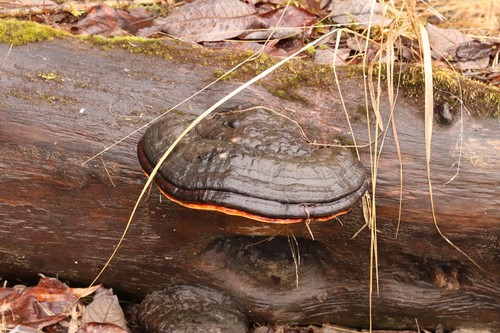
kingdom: Fungi
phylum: Basidiomycota
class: Agaricomycetes
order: Polyporales
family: Fomitopsidaceae
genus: Fomitopsis
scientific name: Fomitopsis pinicola
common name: Red-belted bracket
